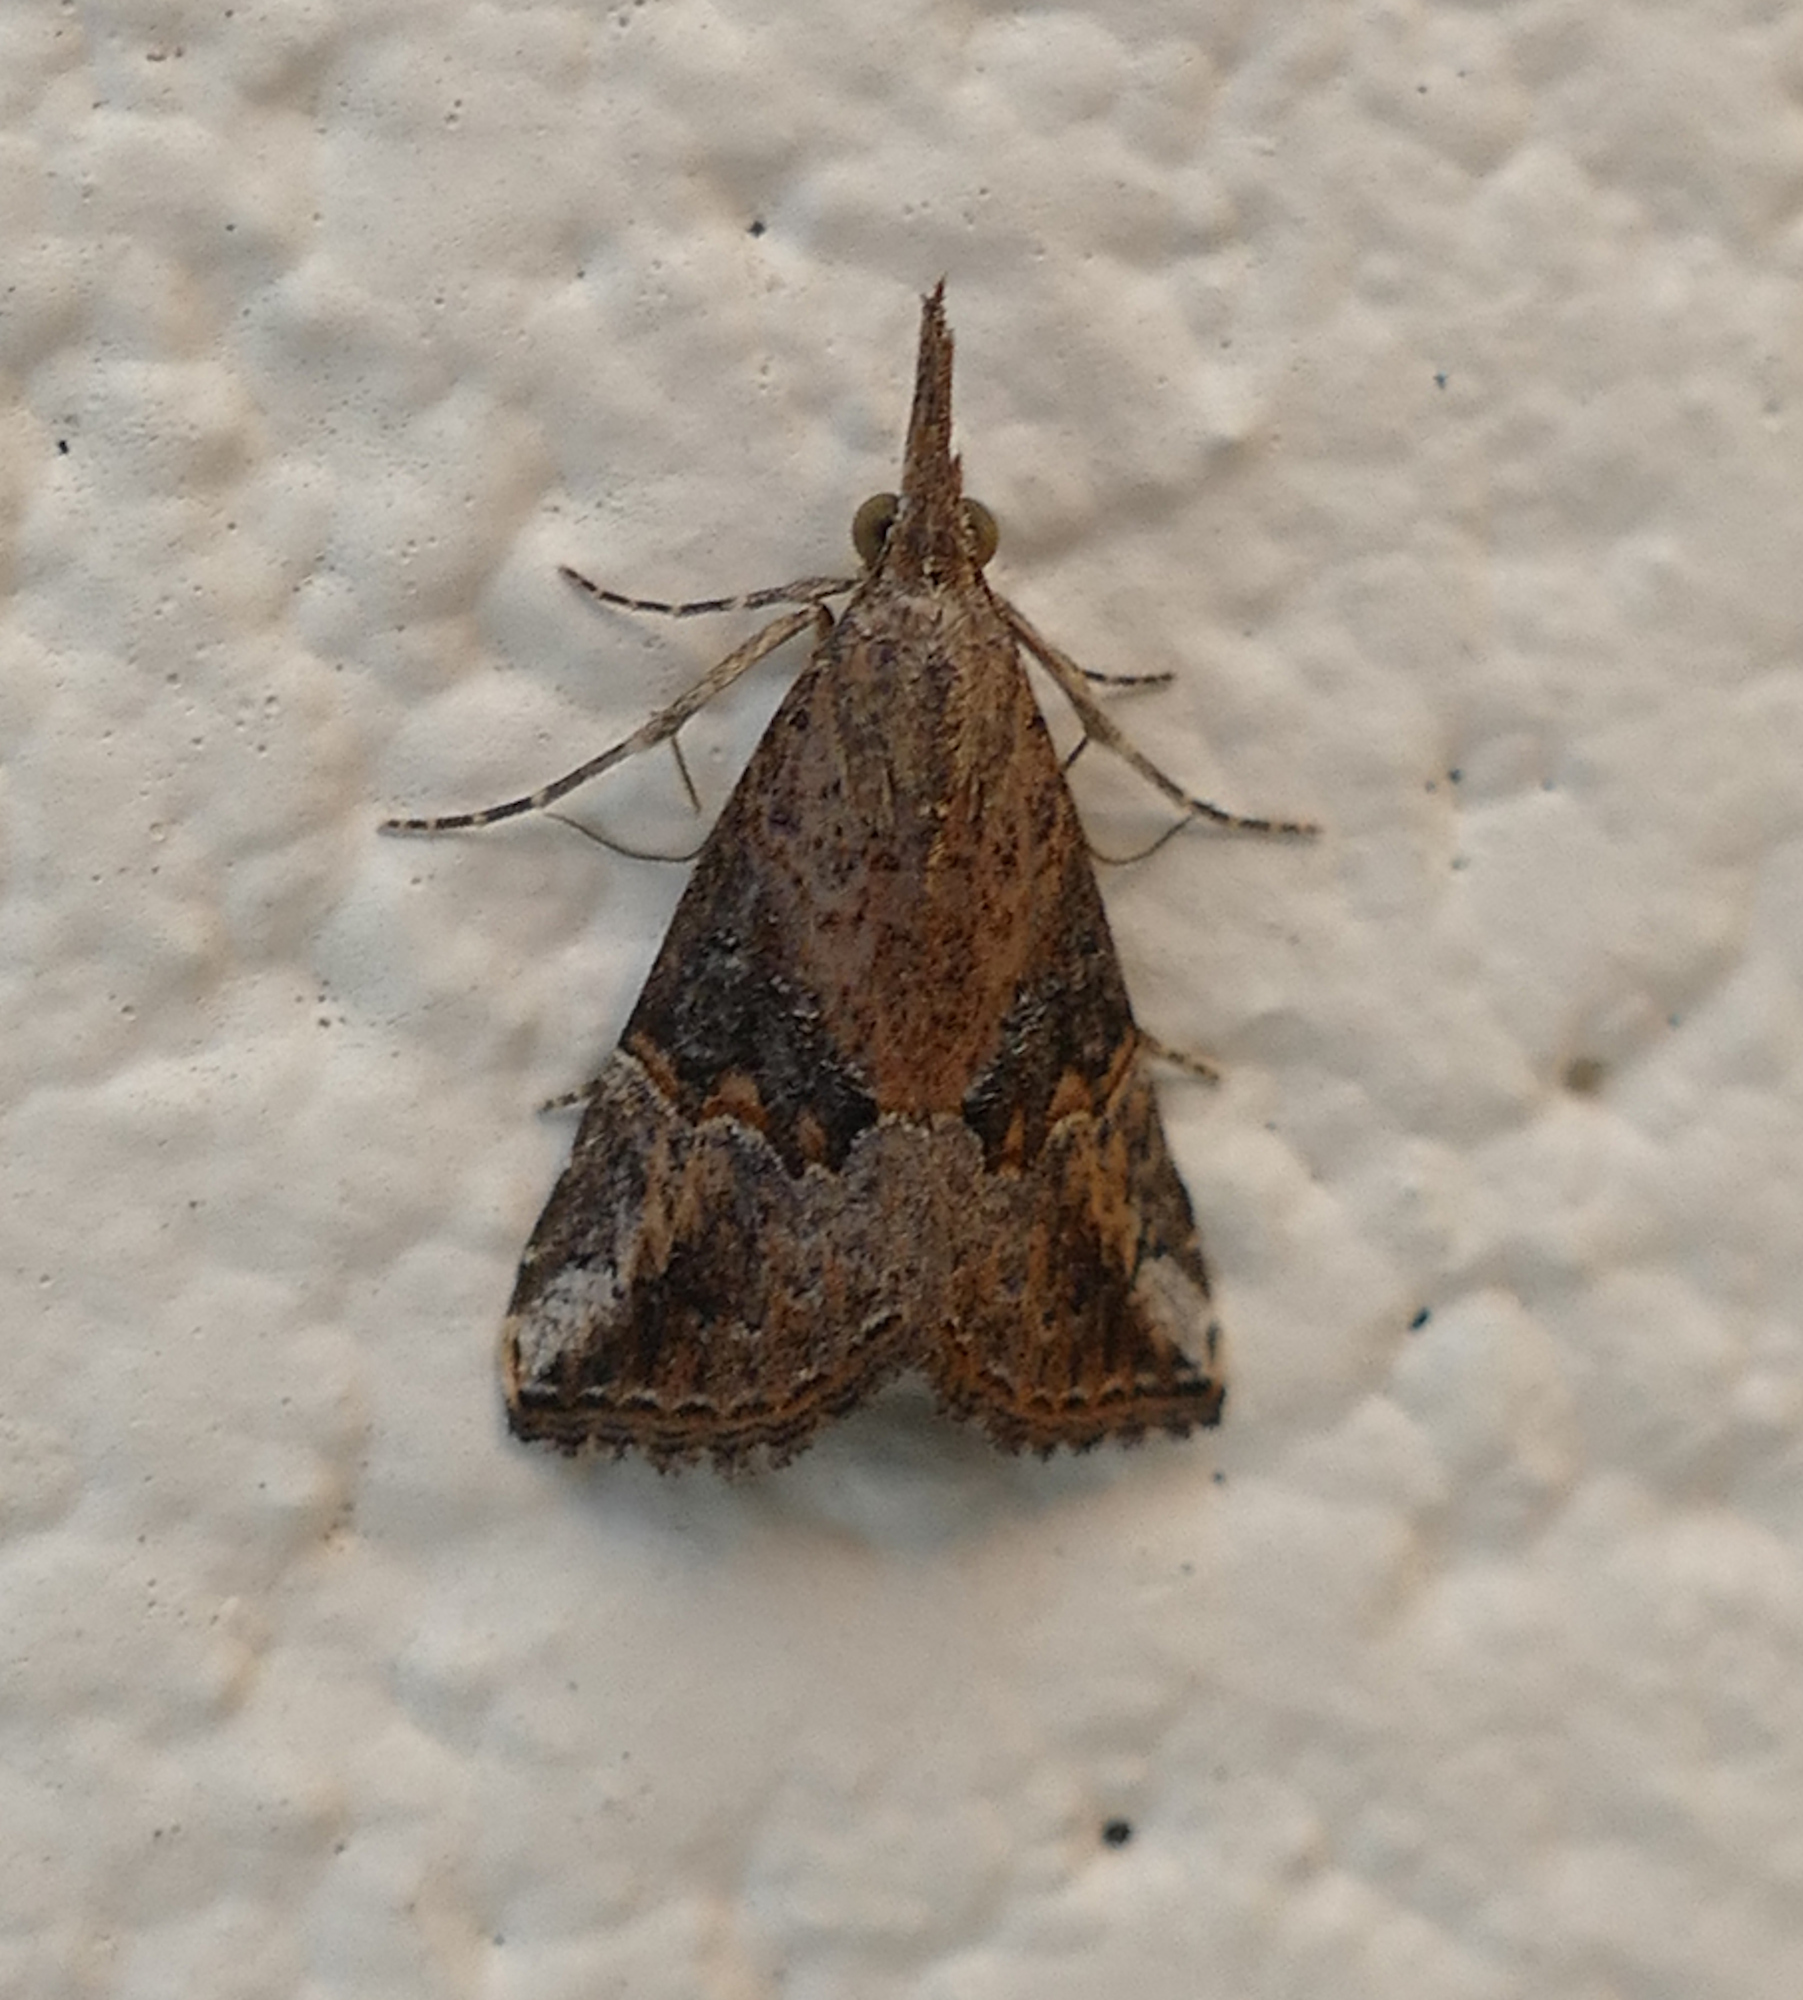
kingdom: Animalia
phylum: Arthropoda
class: Insecta
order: Lepidoptera
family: Erebidae
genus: Hypena
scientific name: Hypena minualis
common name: Sooty snout
